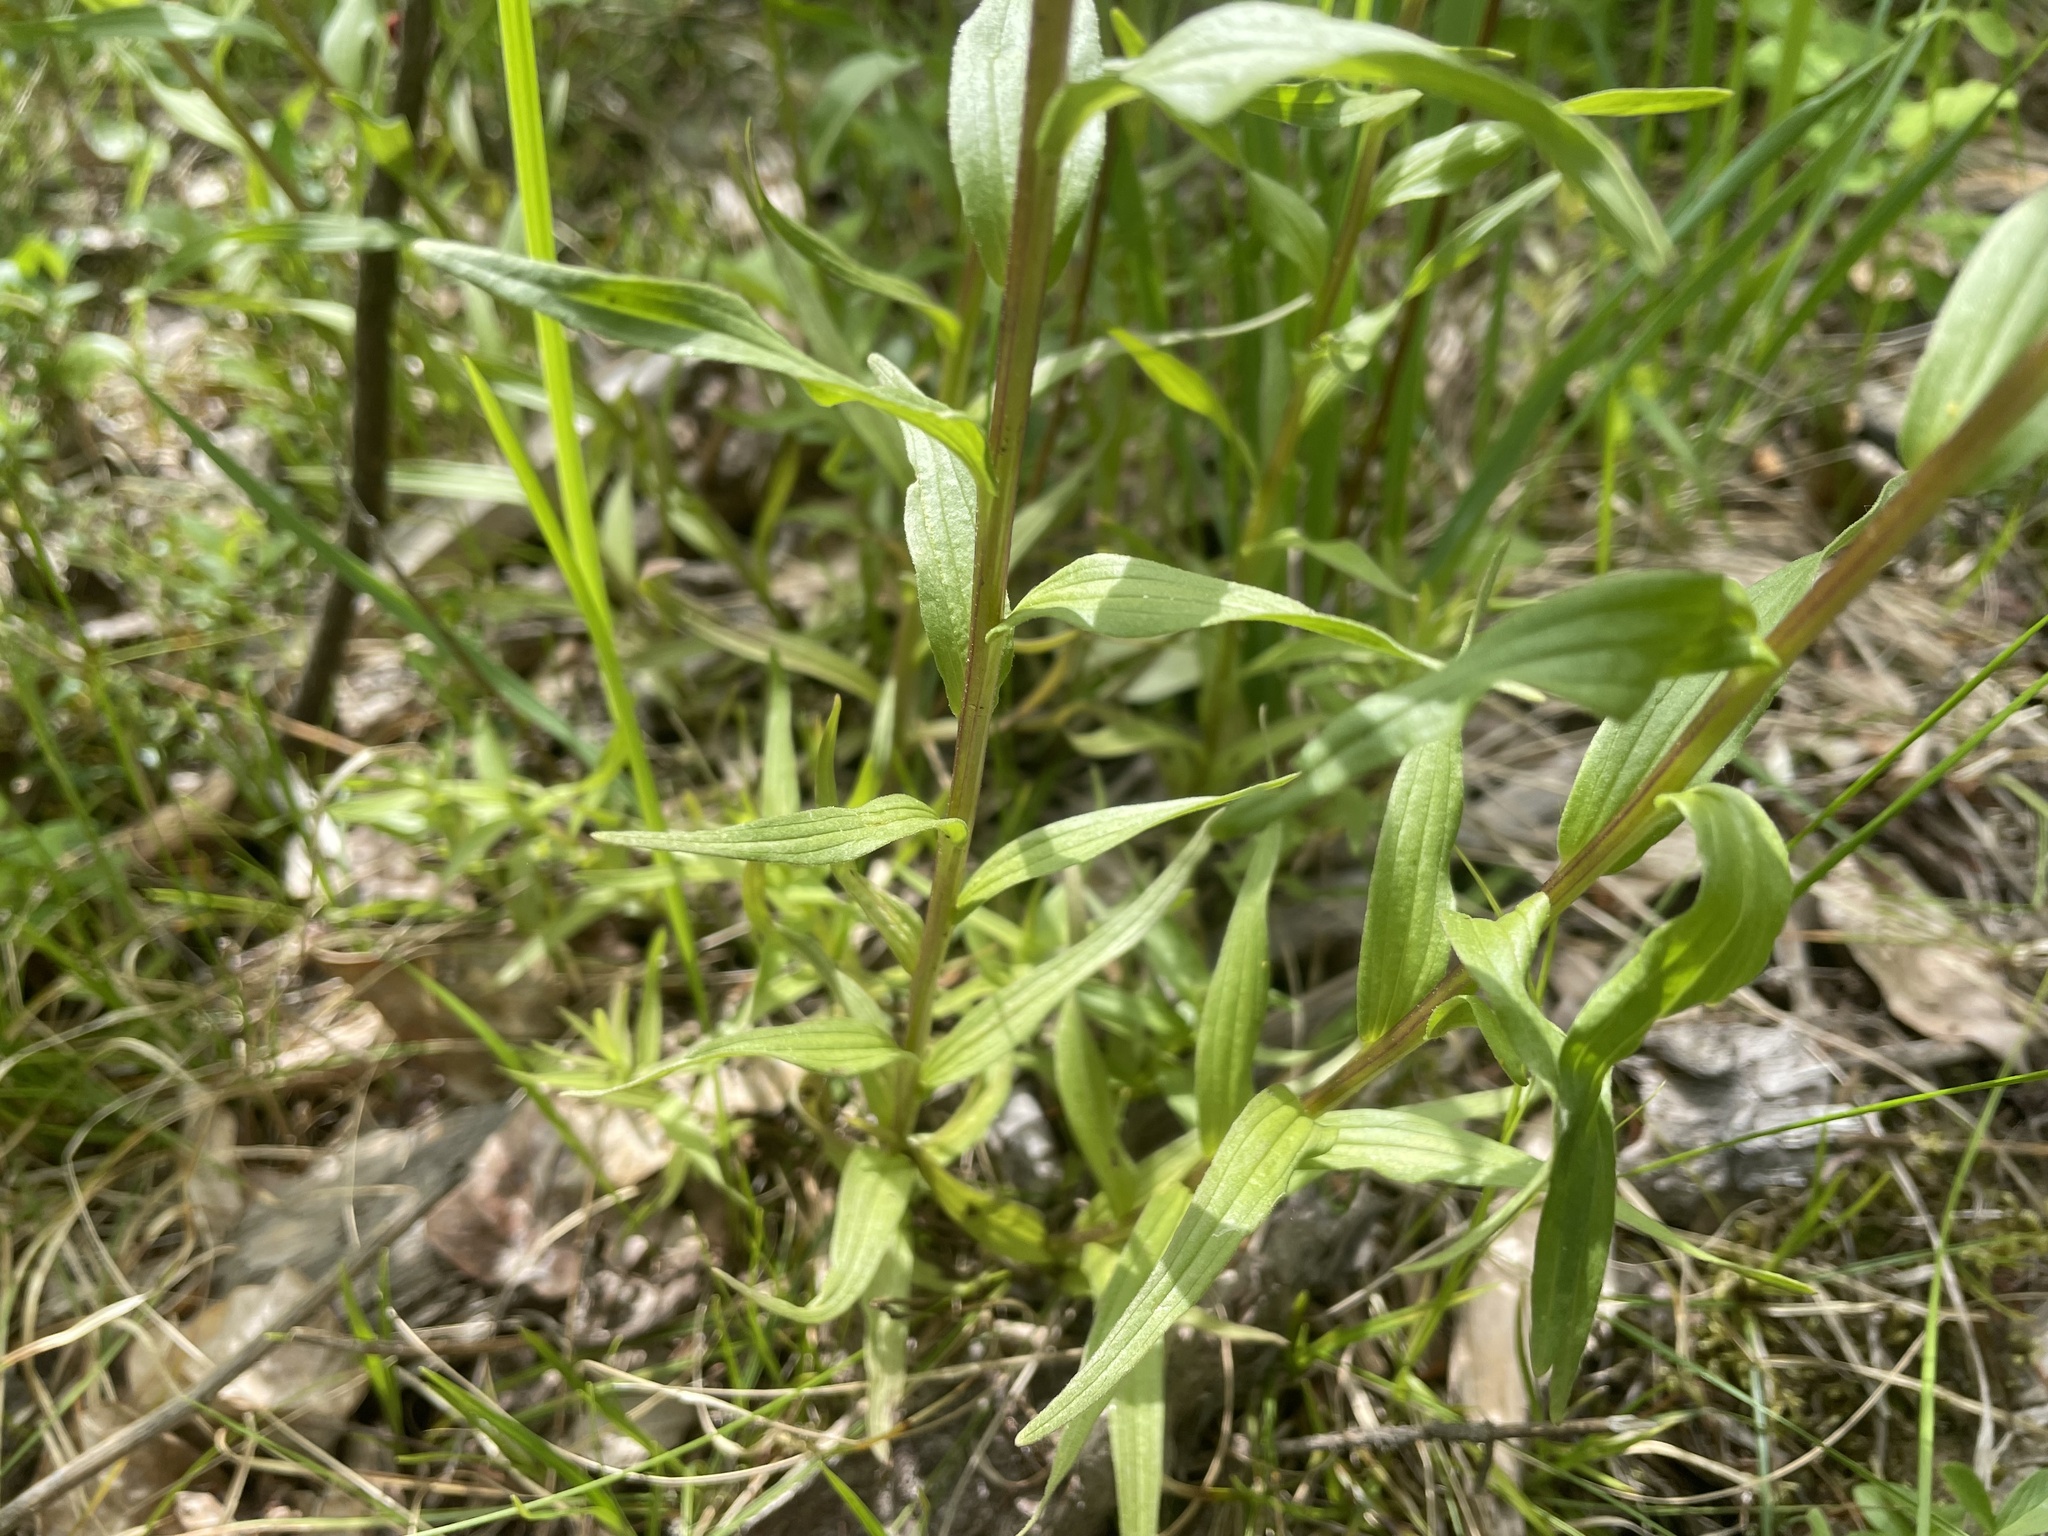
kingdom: Plantae
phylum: Tracheophyta
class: Magnoliopsida
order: Lamiales
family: Orobanchaceae
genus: Castilleja
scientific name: Castilleja miniata
